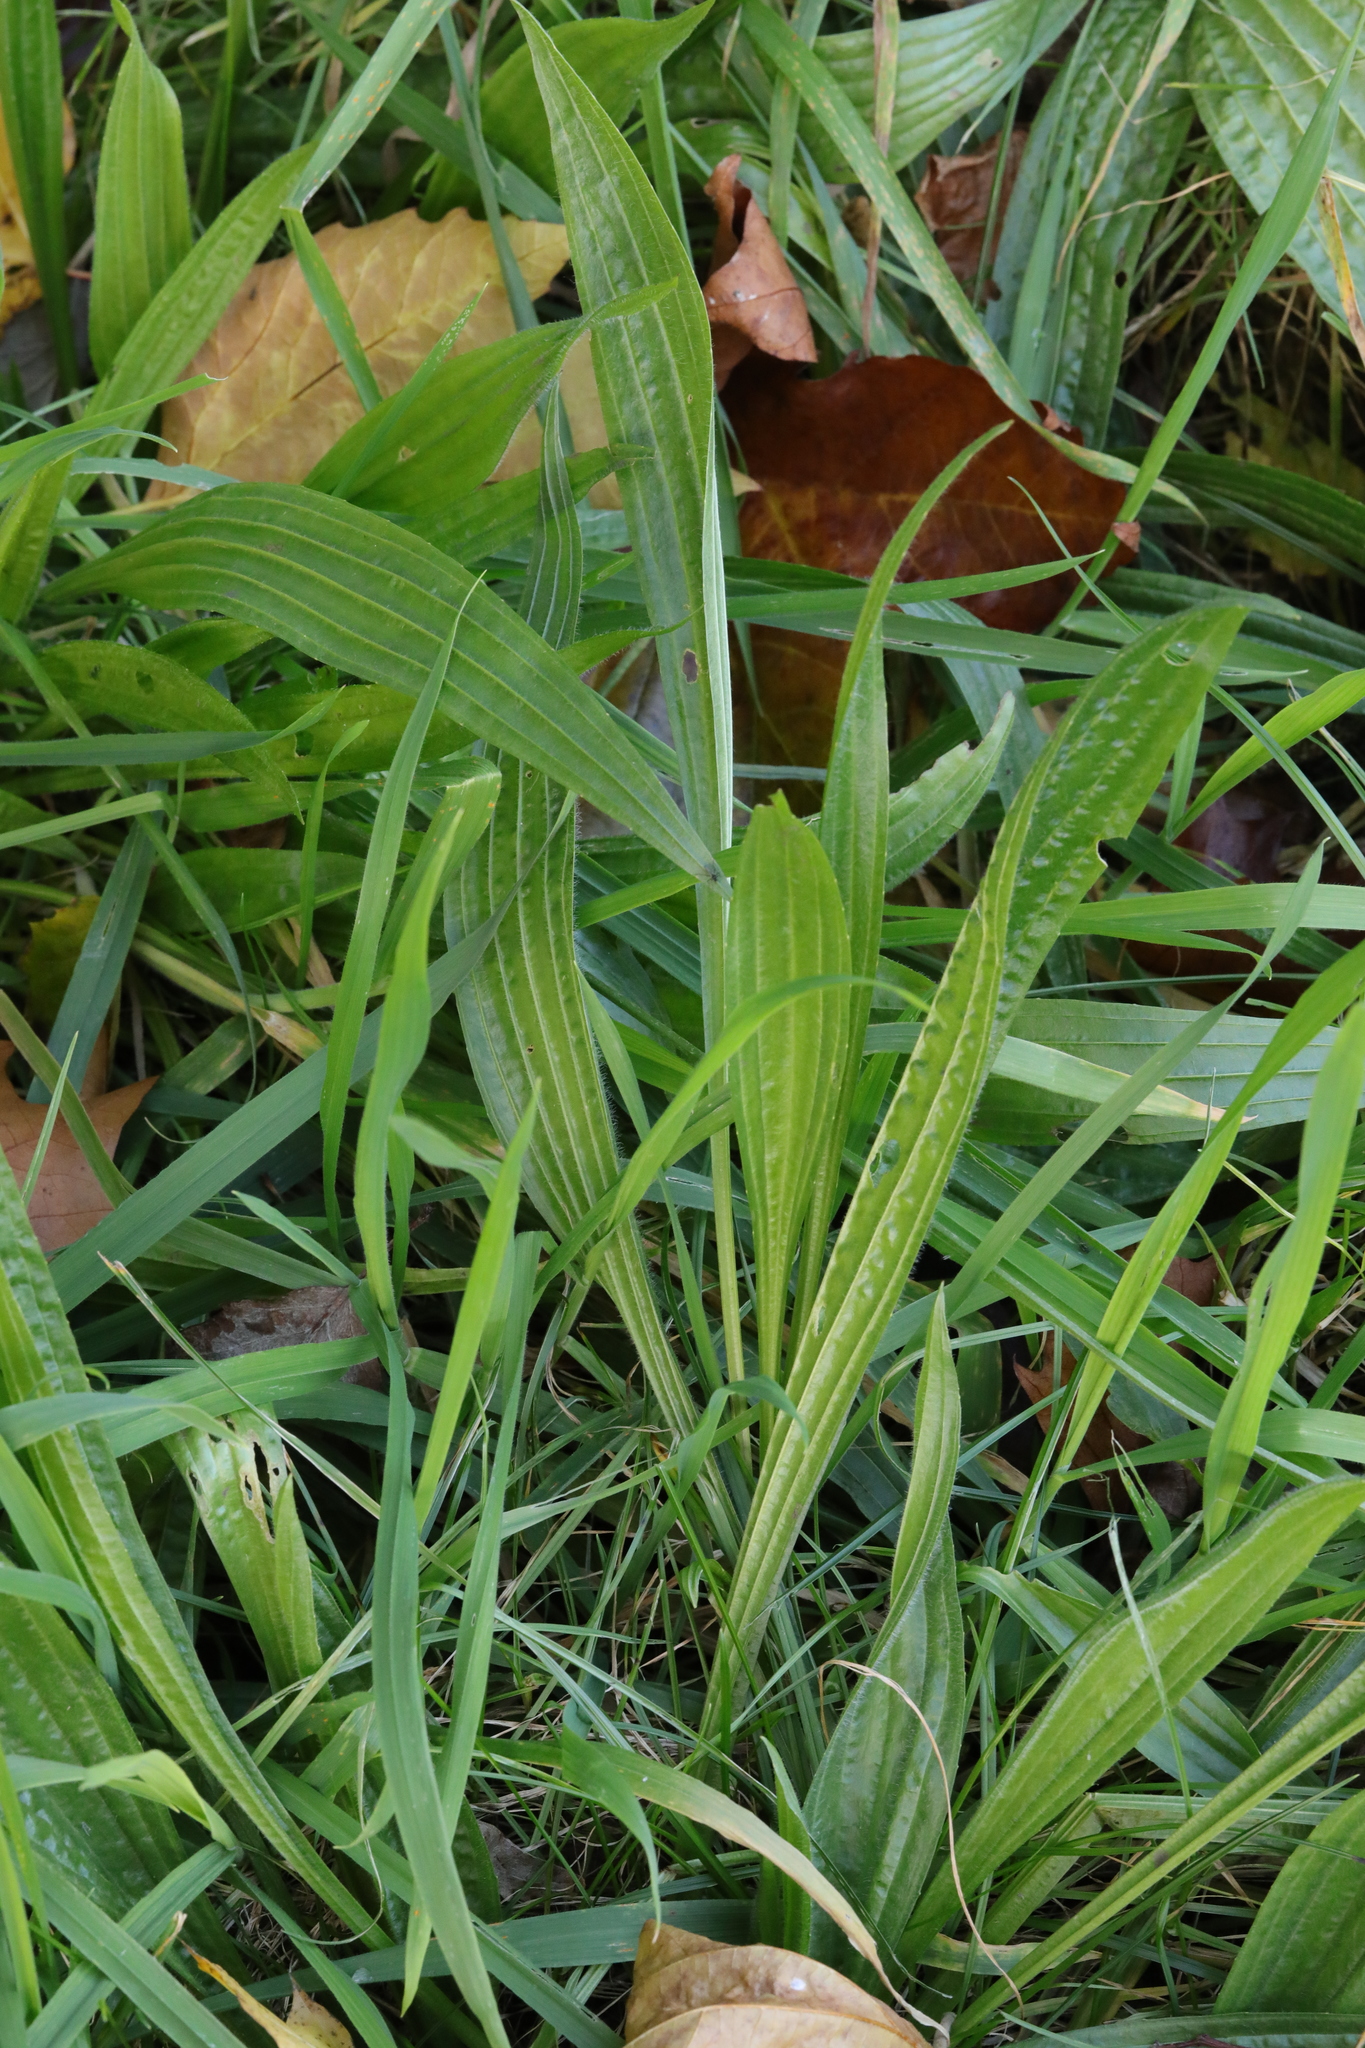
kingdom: Plantae
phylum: Tracheophyta
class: Magnoliopsida
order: Lamiales
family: Plantaginaceae
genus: Plantago
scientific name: Plantago lanceolata
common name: Ribwort plantain
